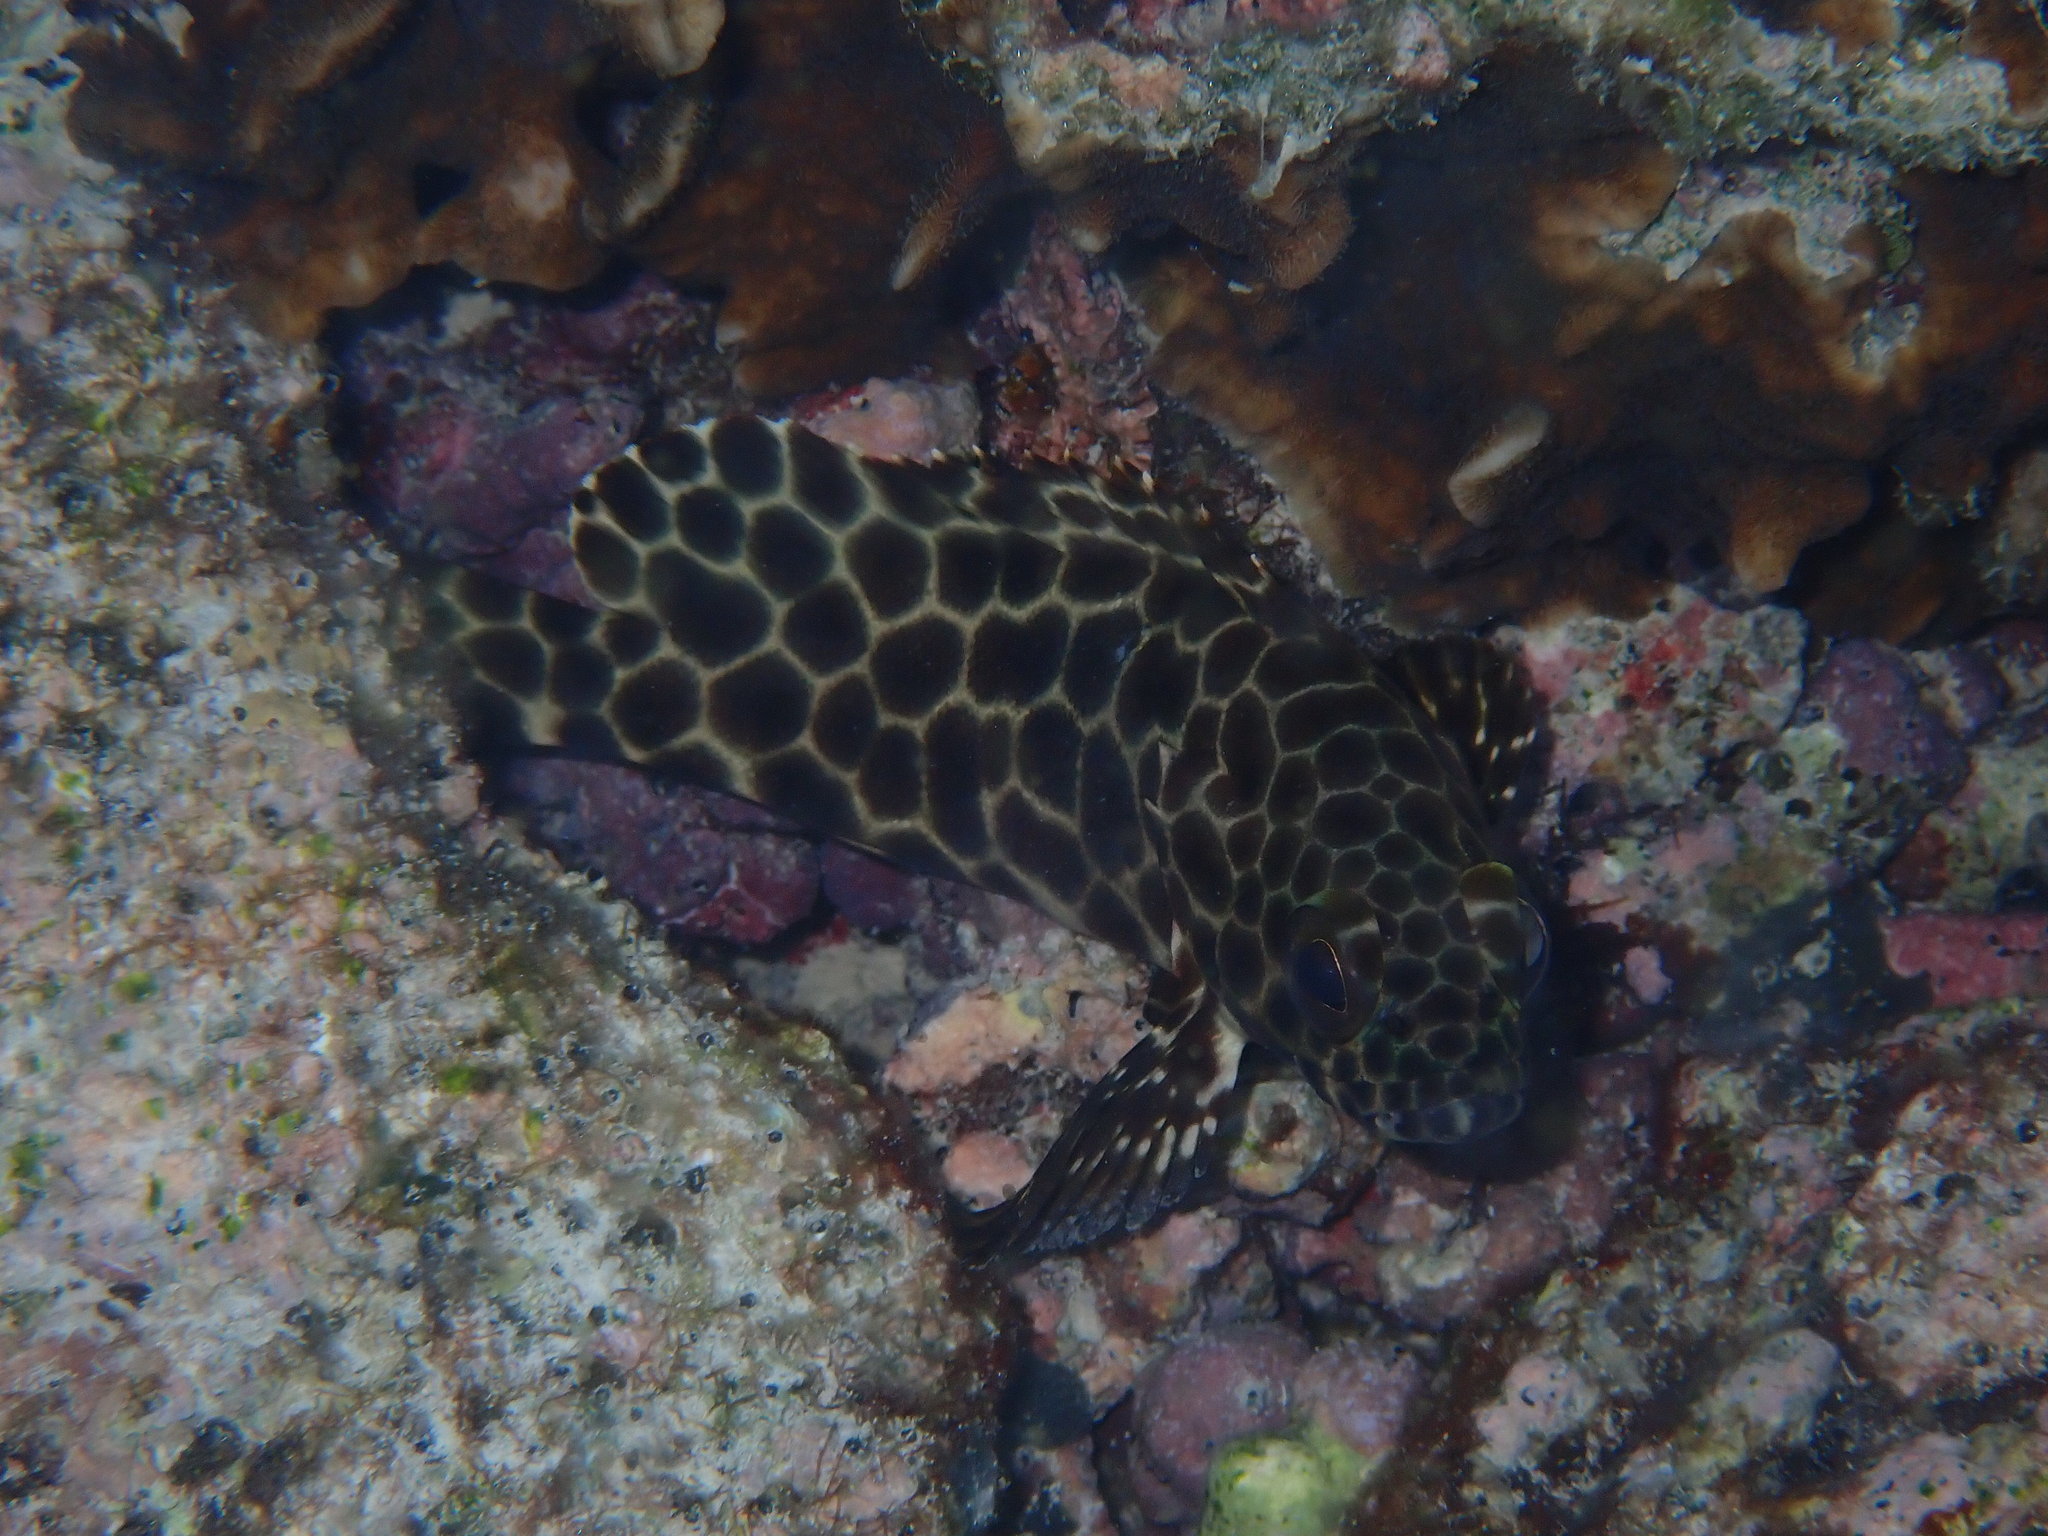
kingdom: Animalia
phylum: Chordata
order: Perciformes
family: Serranidae
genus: Epinephelus
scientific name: Epinephelus quoyanus
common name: Longfin grouper
